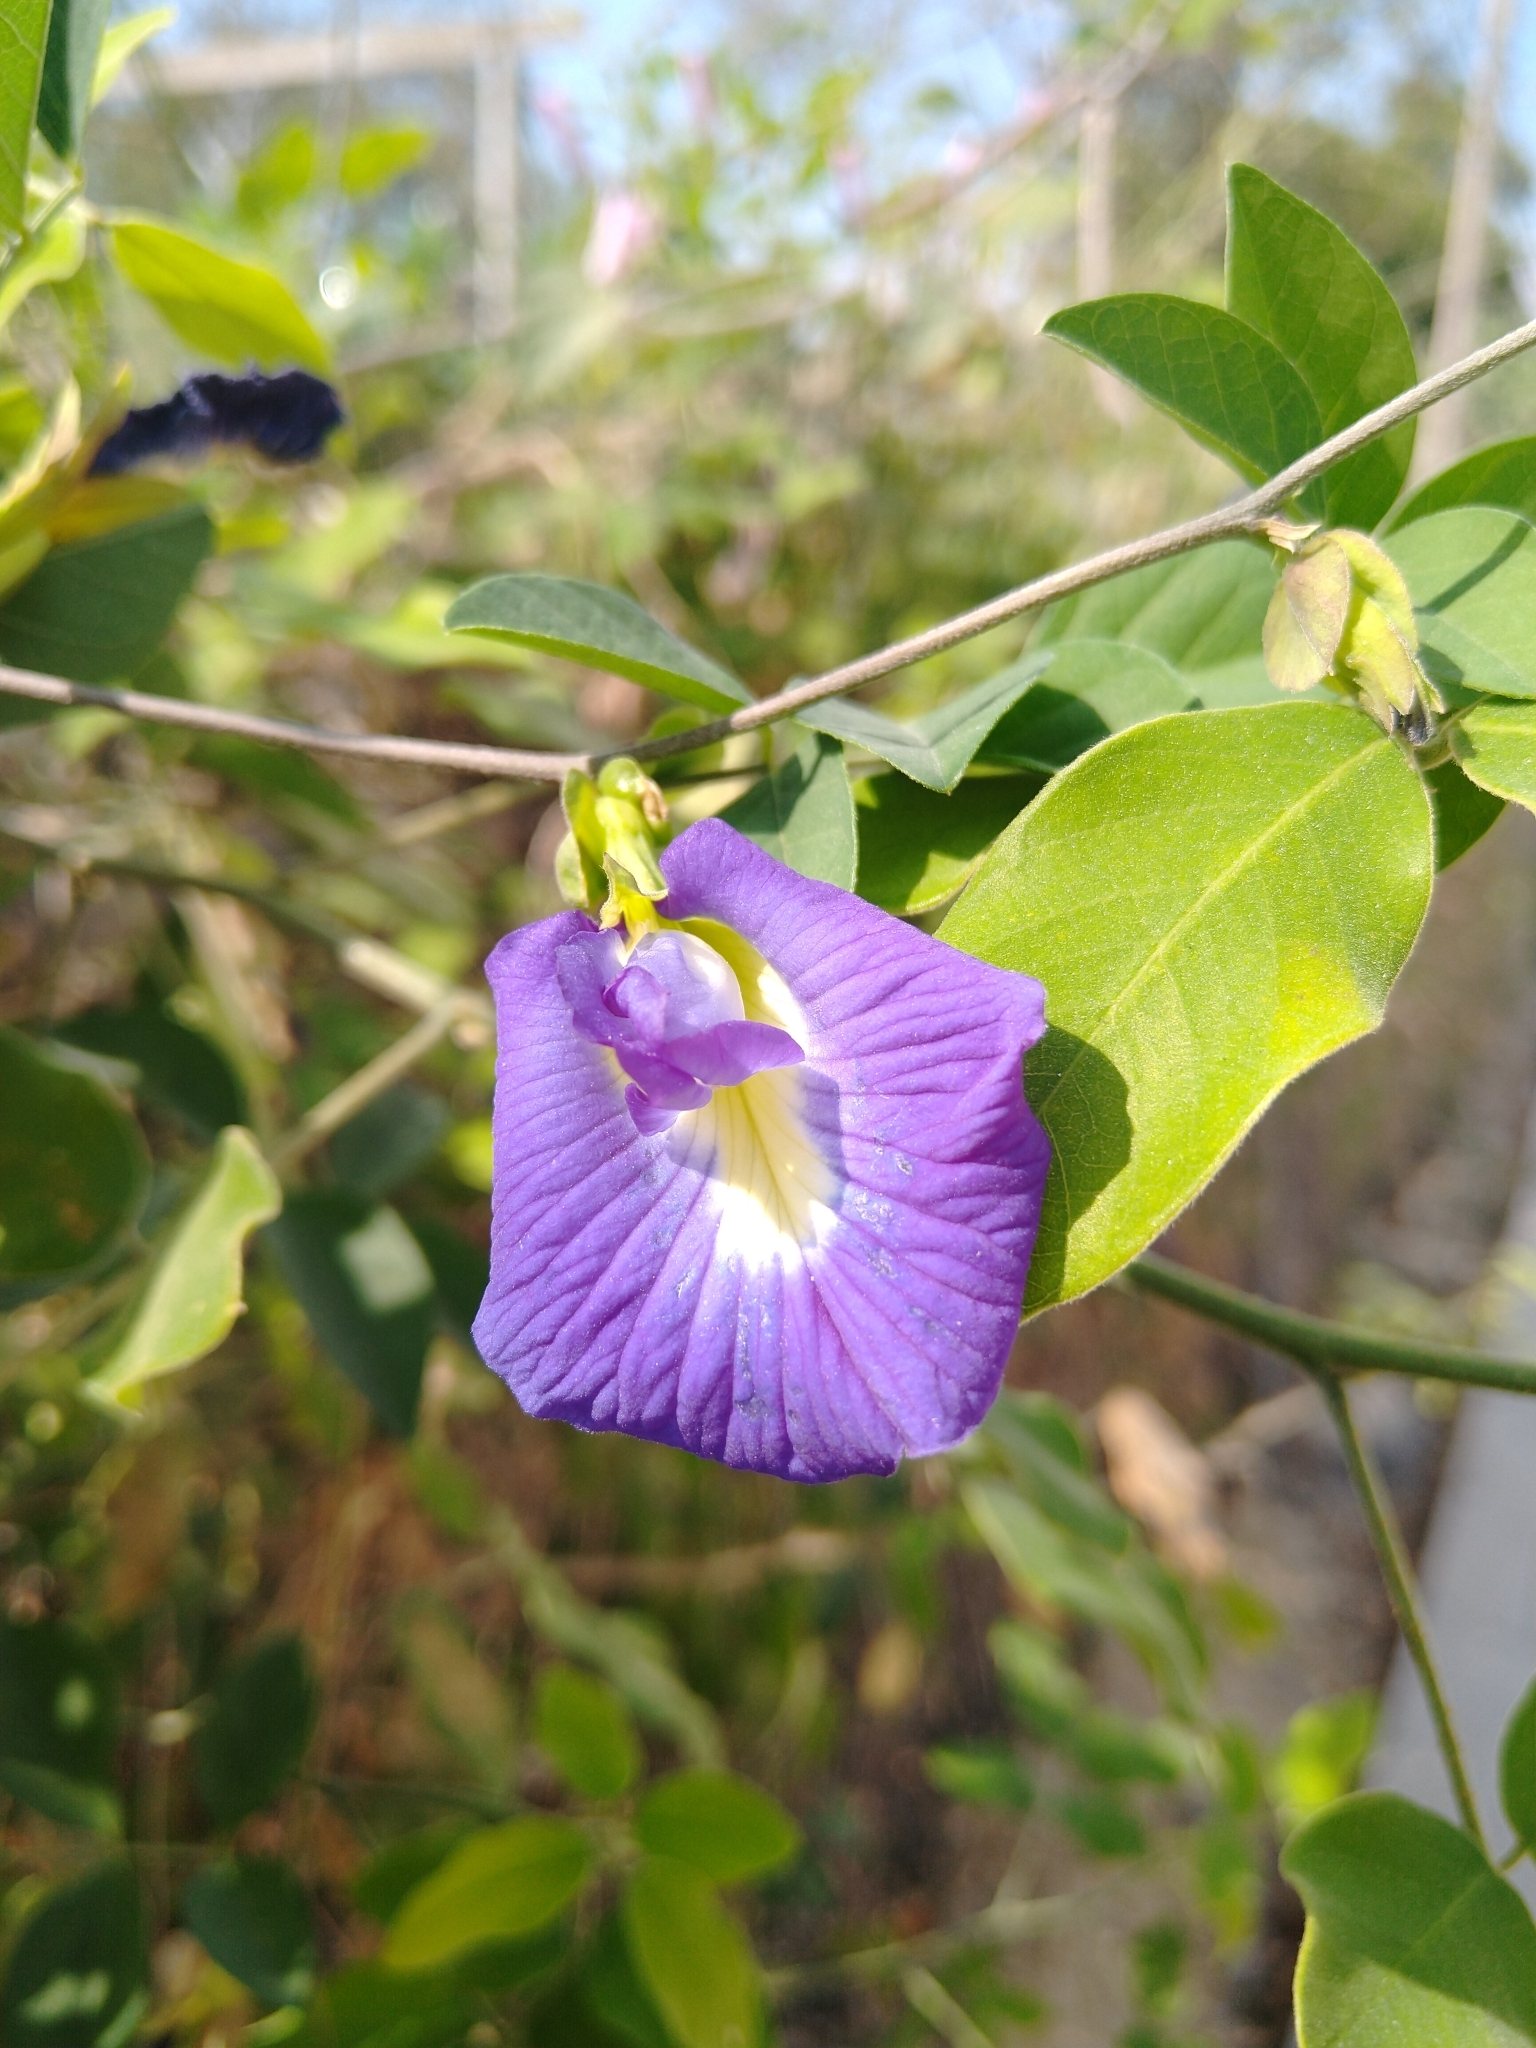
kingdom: Plantae
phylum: Tracheophyta
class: Magnoliopsida
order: Fabales
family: Fabaceae
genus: Clitoria
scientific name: Clitoria ternatea
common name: Asian pigeonwings
